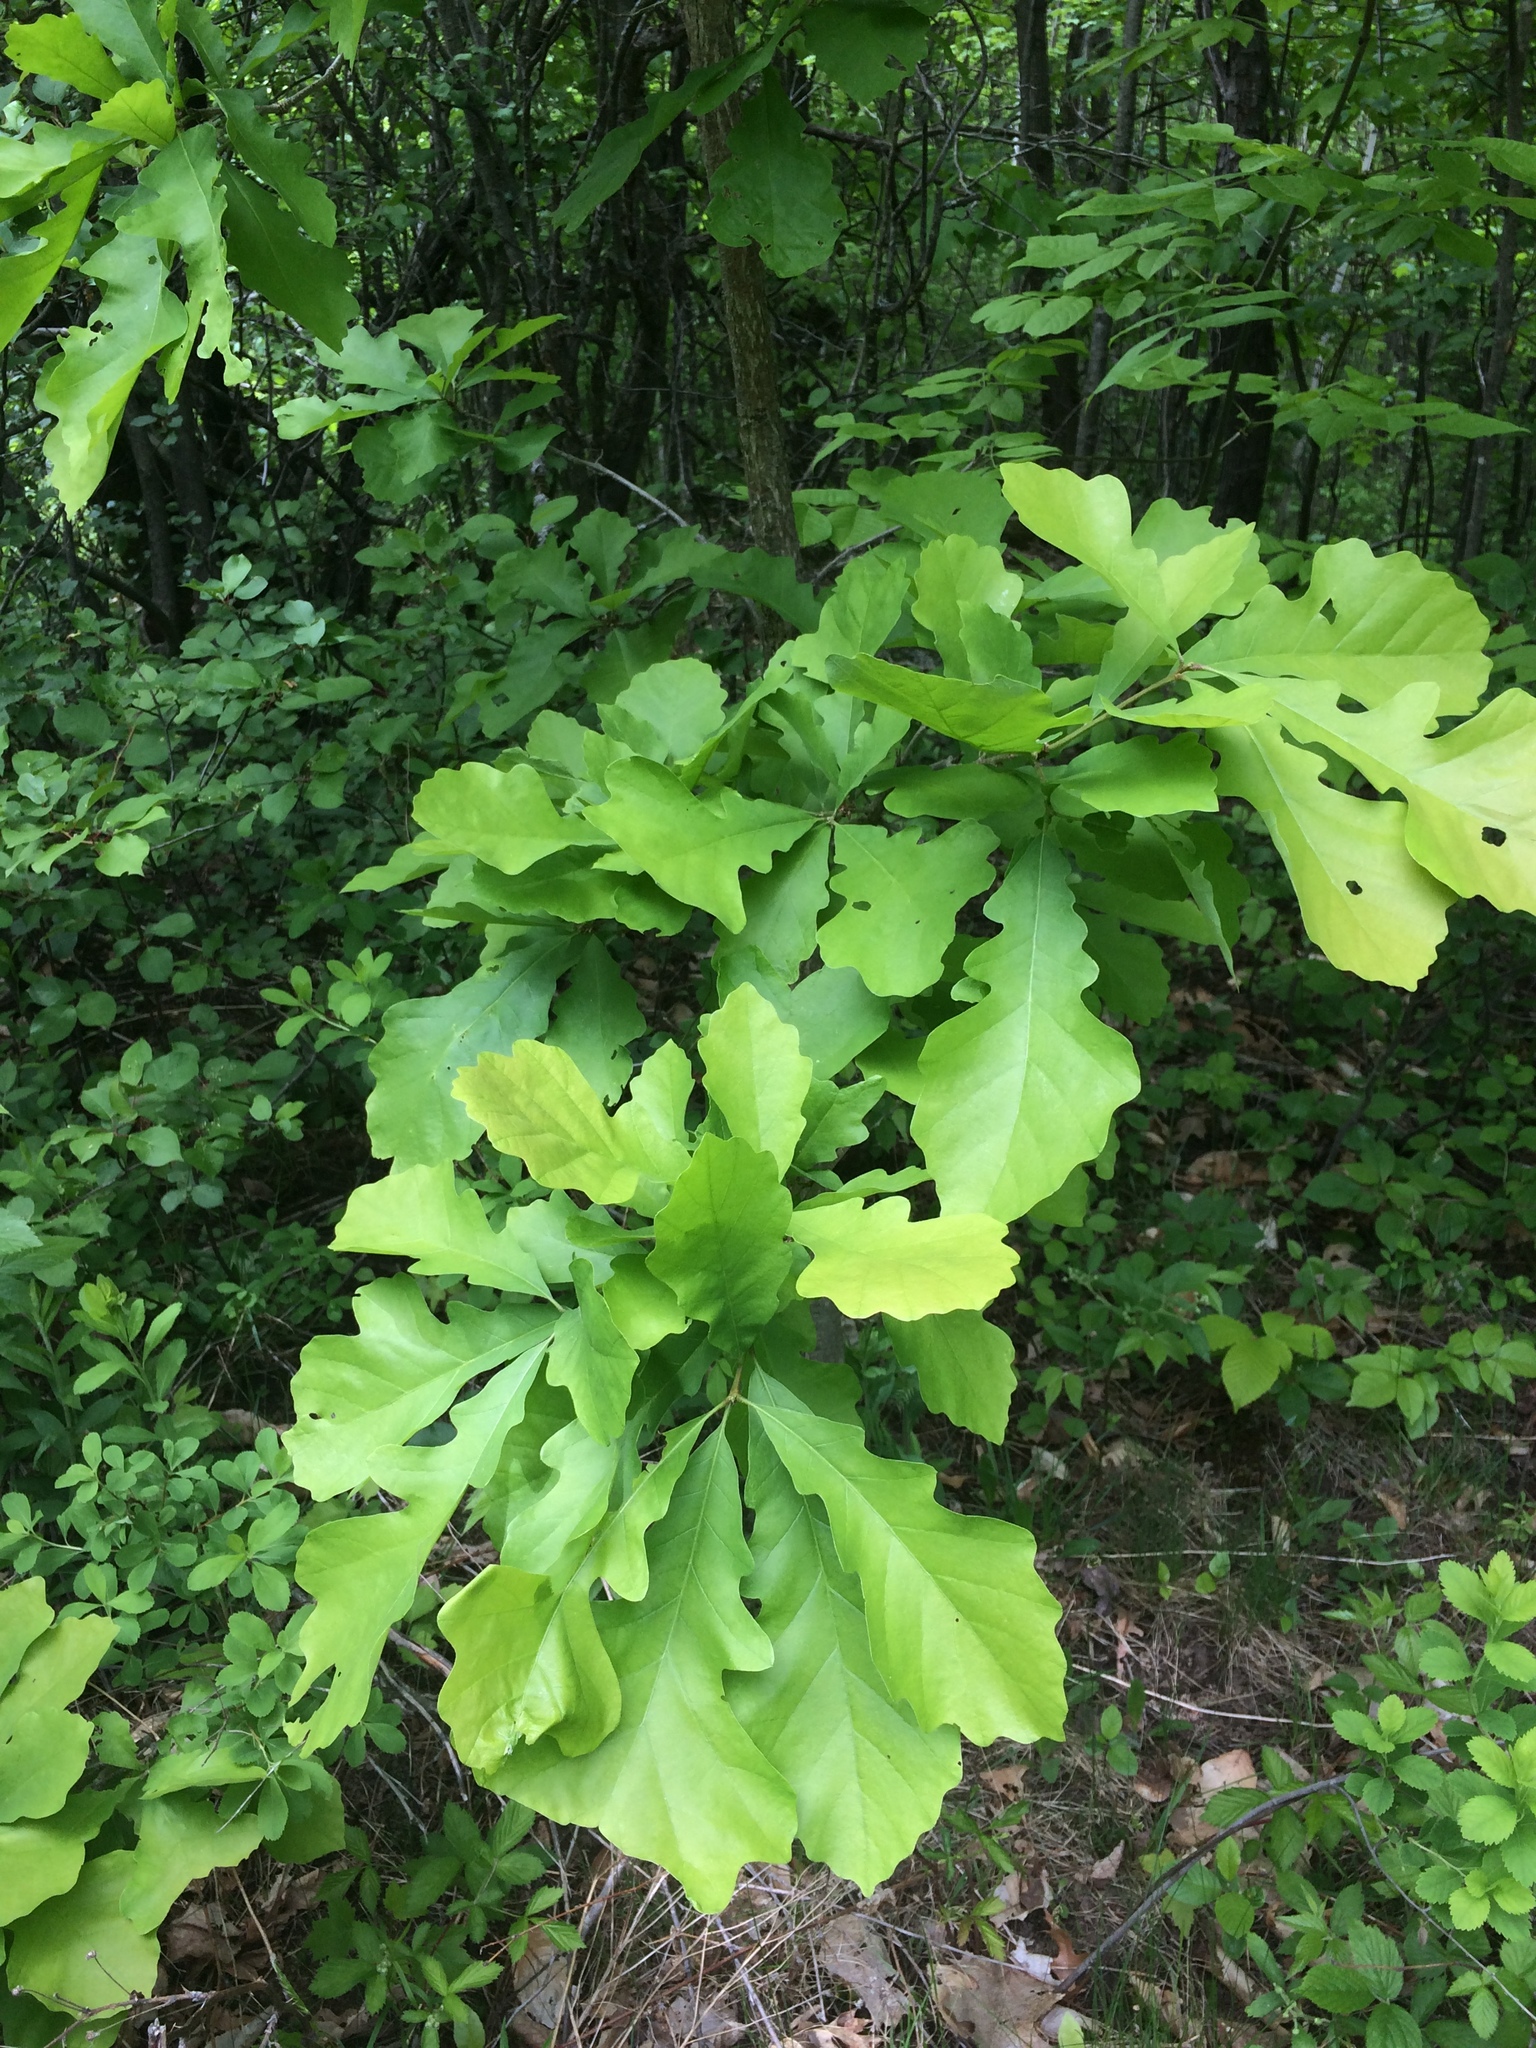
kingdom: Plantae
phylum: Tracheophyta
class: Magnoliopsida
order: Fagales
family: Fagaceae
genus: Quercus
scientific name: Quercus macrocarpa
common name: Bur oak
